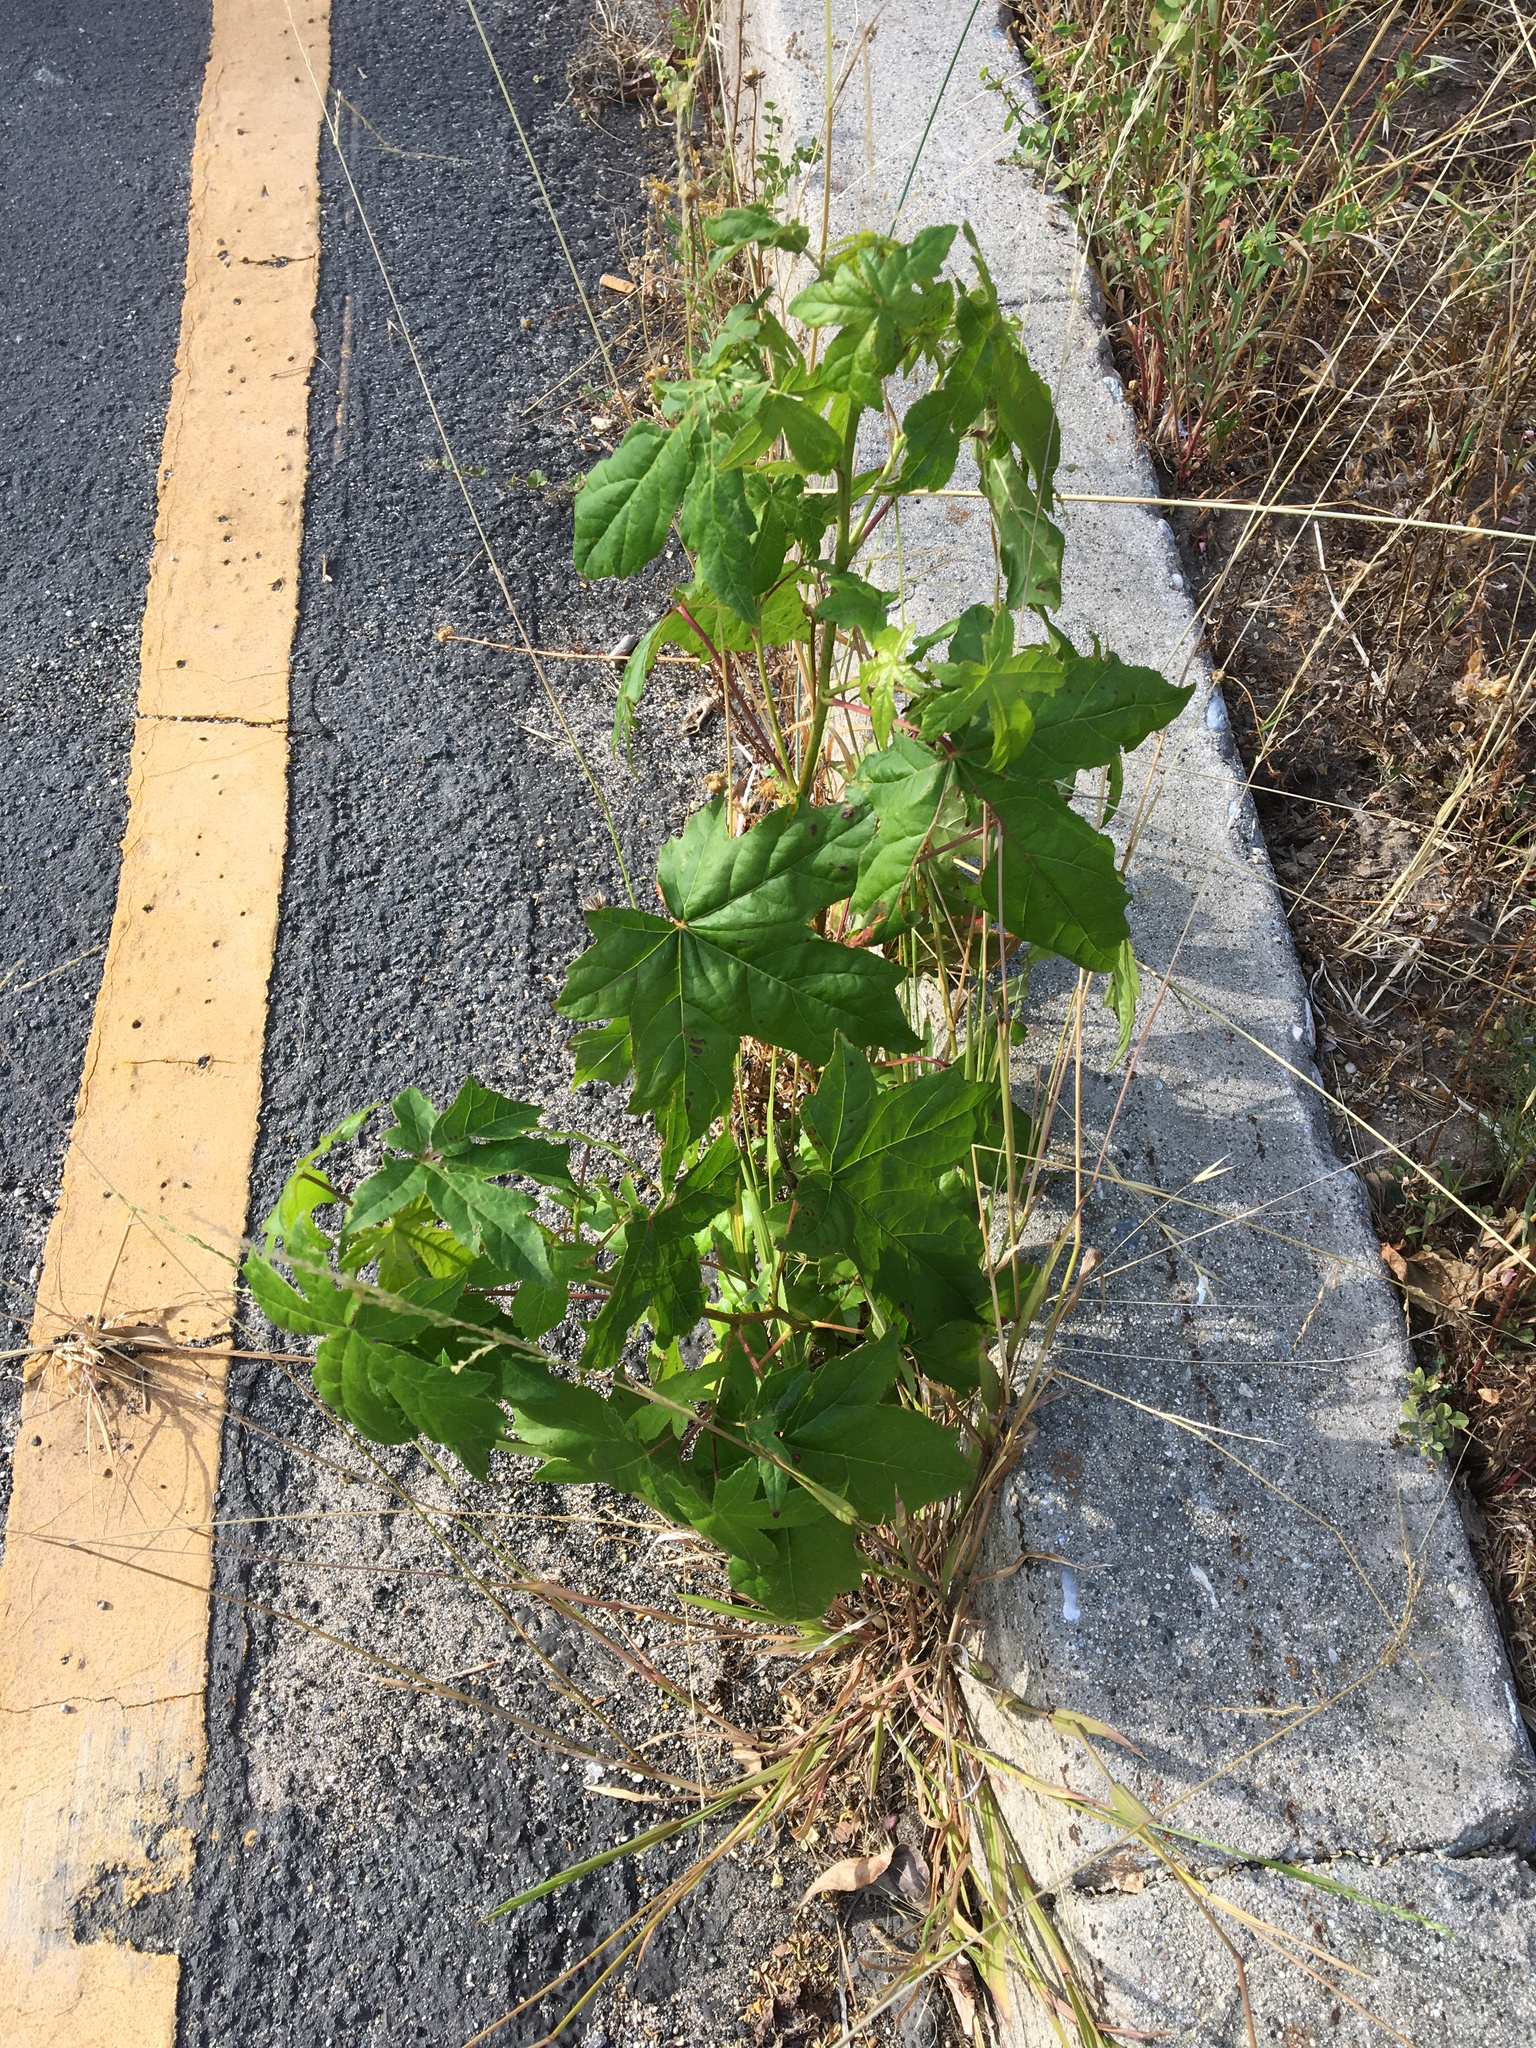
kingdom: Plantae
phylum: Tracheophyta
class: Magnoliopsida
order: Malpighiales
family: Euphorbiaceae
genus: Ricinus
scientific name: Ricinus communis
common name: Castor-oil-plant
